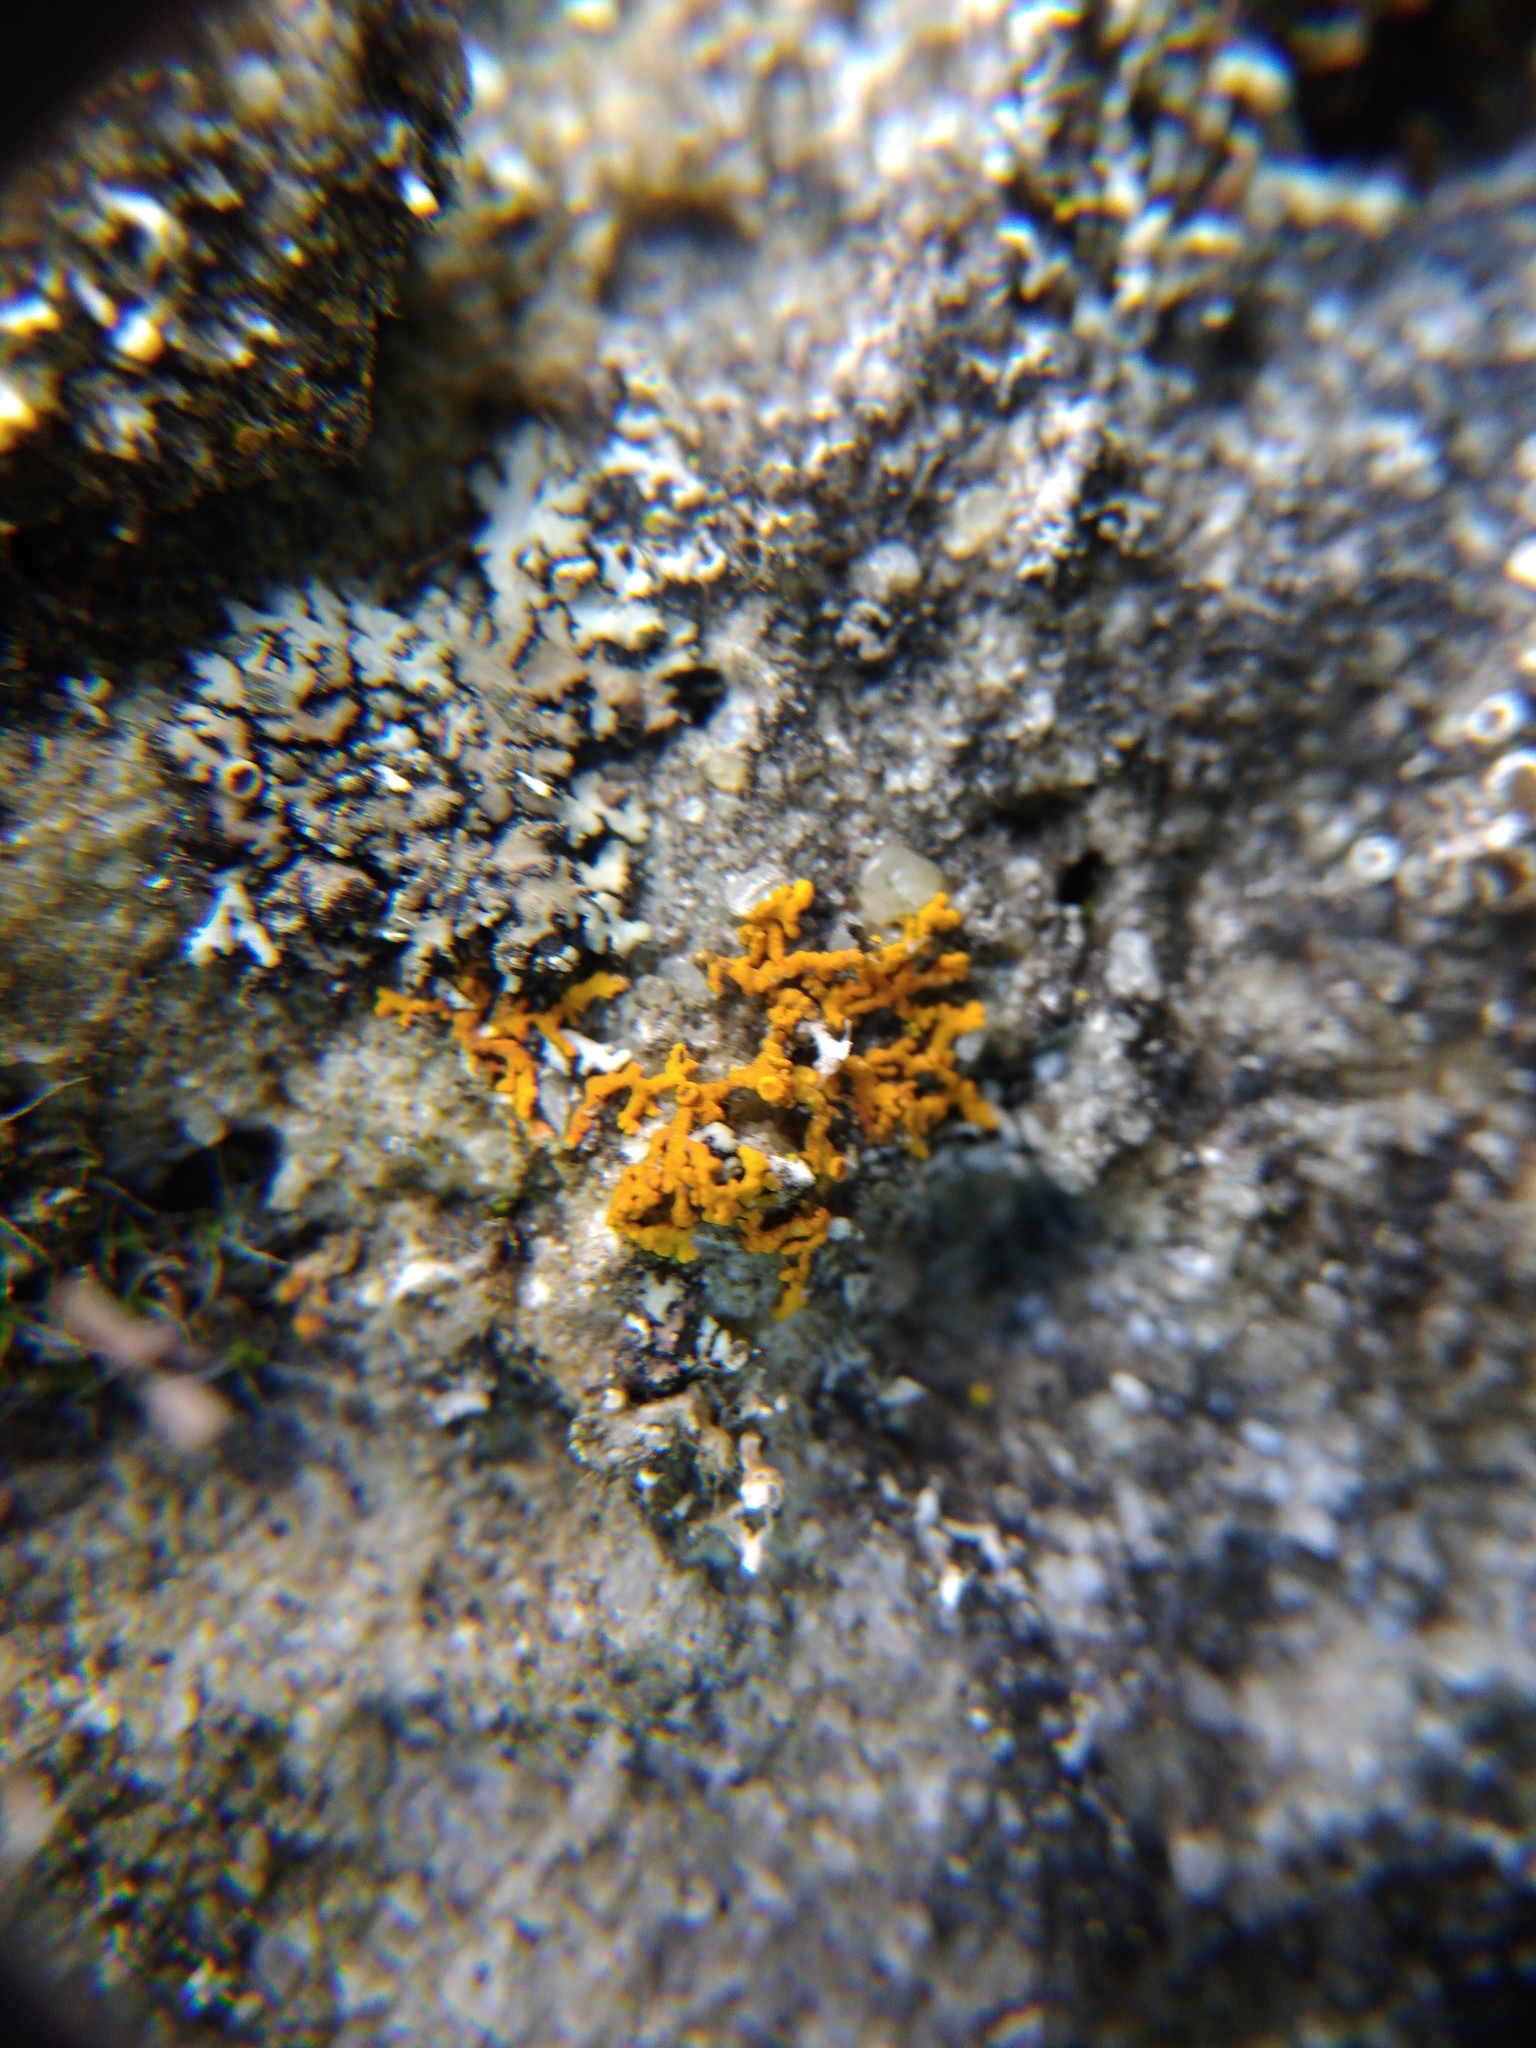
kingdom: Fungi
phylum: Ascomycota
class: Lecanoromycetes
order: Teloschistales
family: Teloschistaceae
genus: Xanthoria
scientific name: Xanthoria elegans
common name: Elegant sunburst lichen
